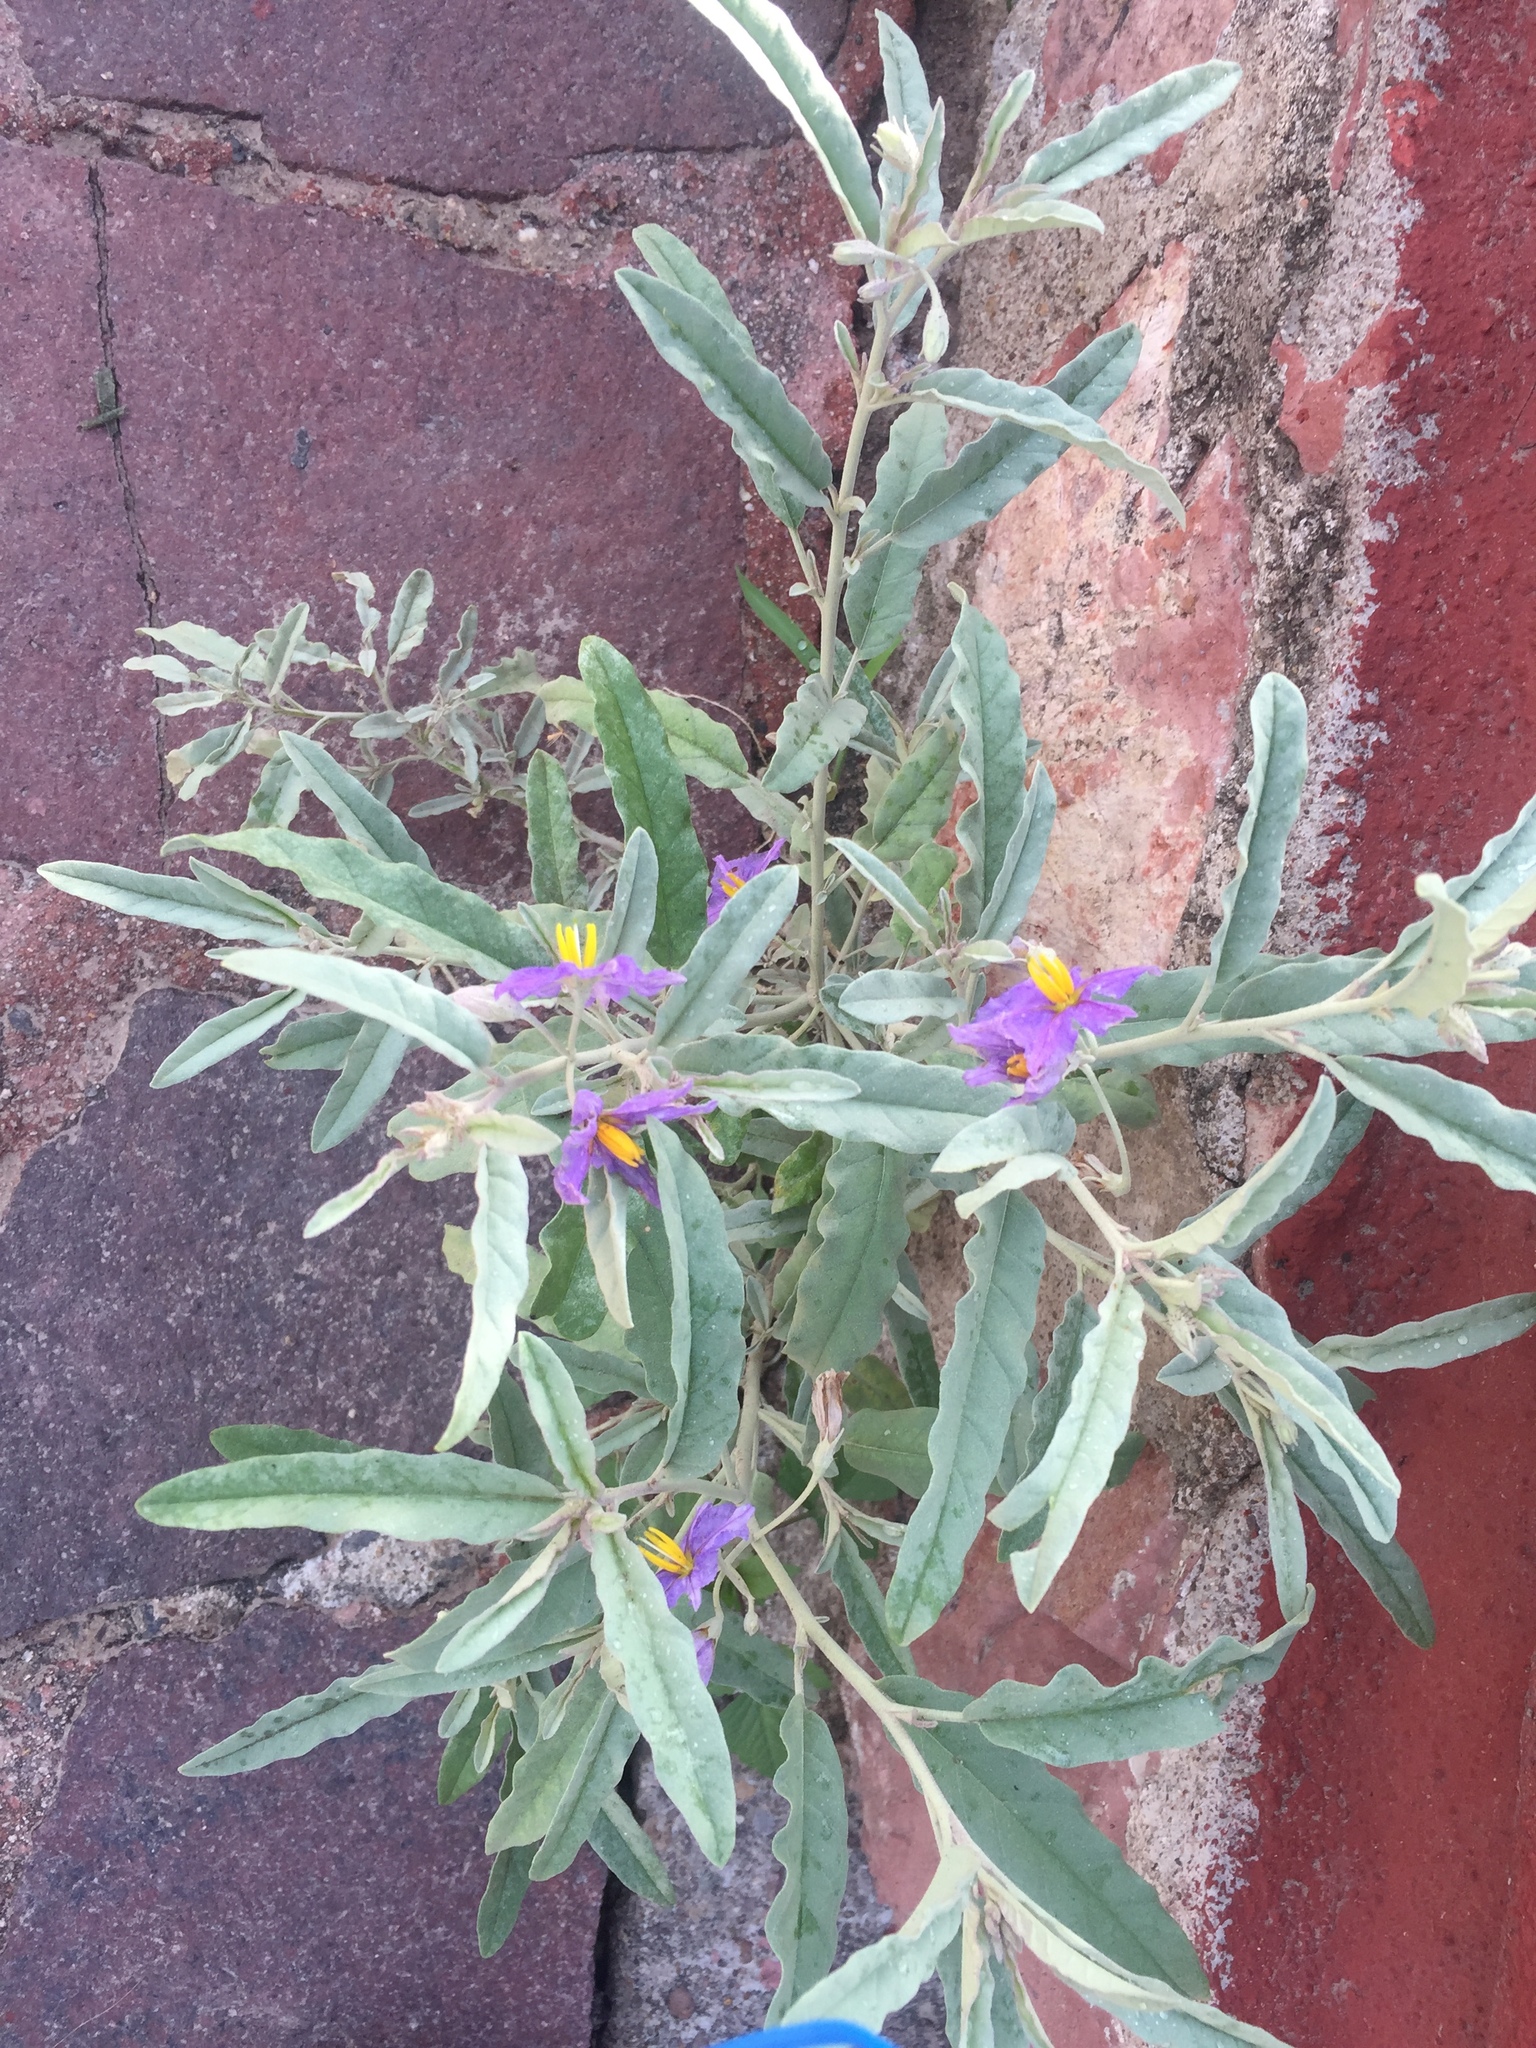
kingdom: Plantae
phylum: Tracheophyta
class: Magnoliopsida
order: Solanales
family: Solanaceae
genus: Solanum
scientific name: Solanum elaeagnifolium
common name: Silverleaf nightshade
